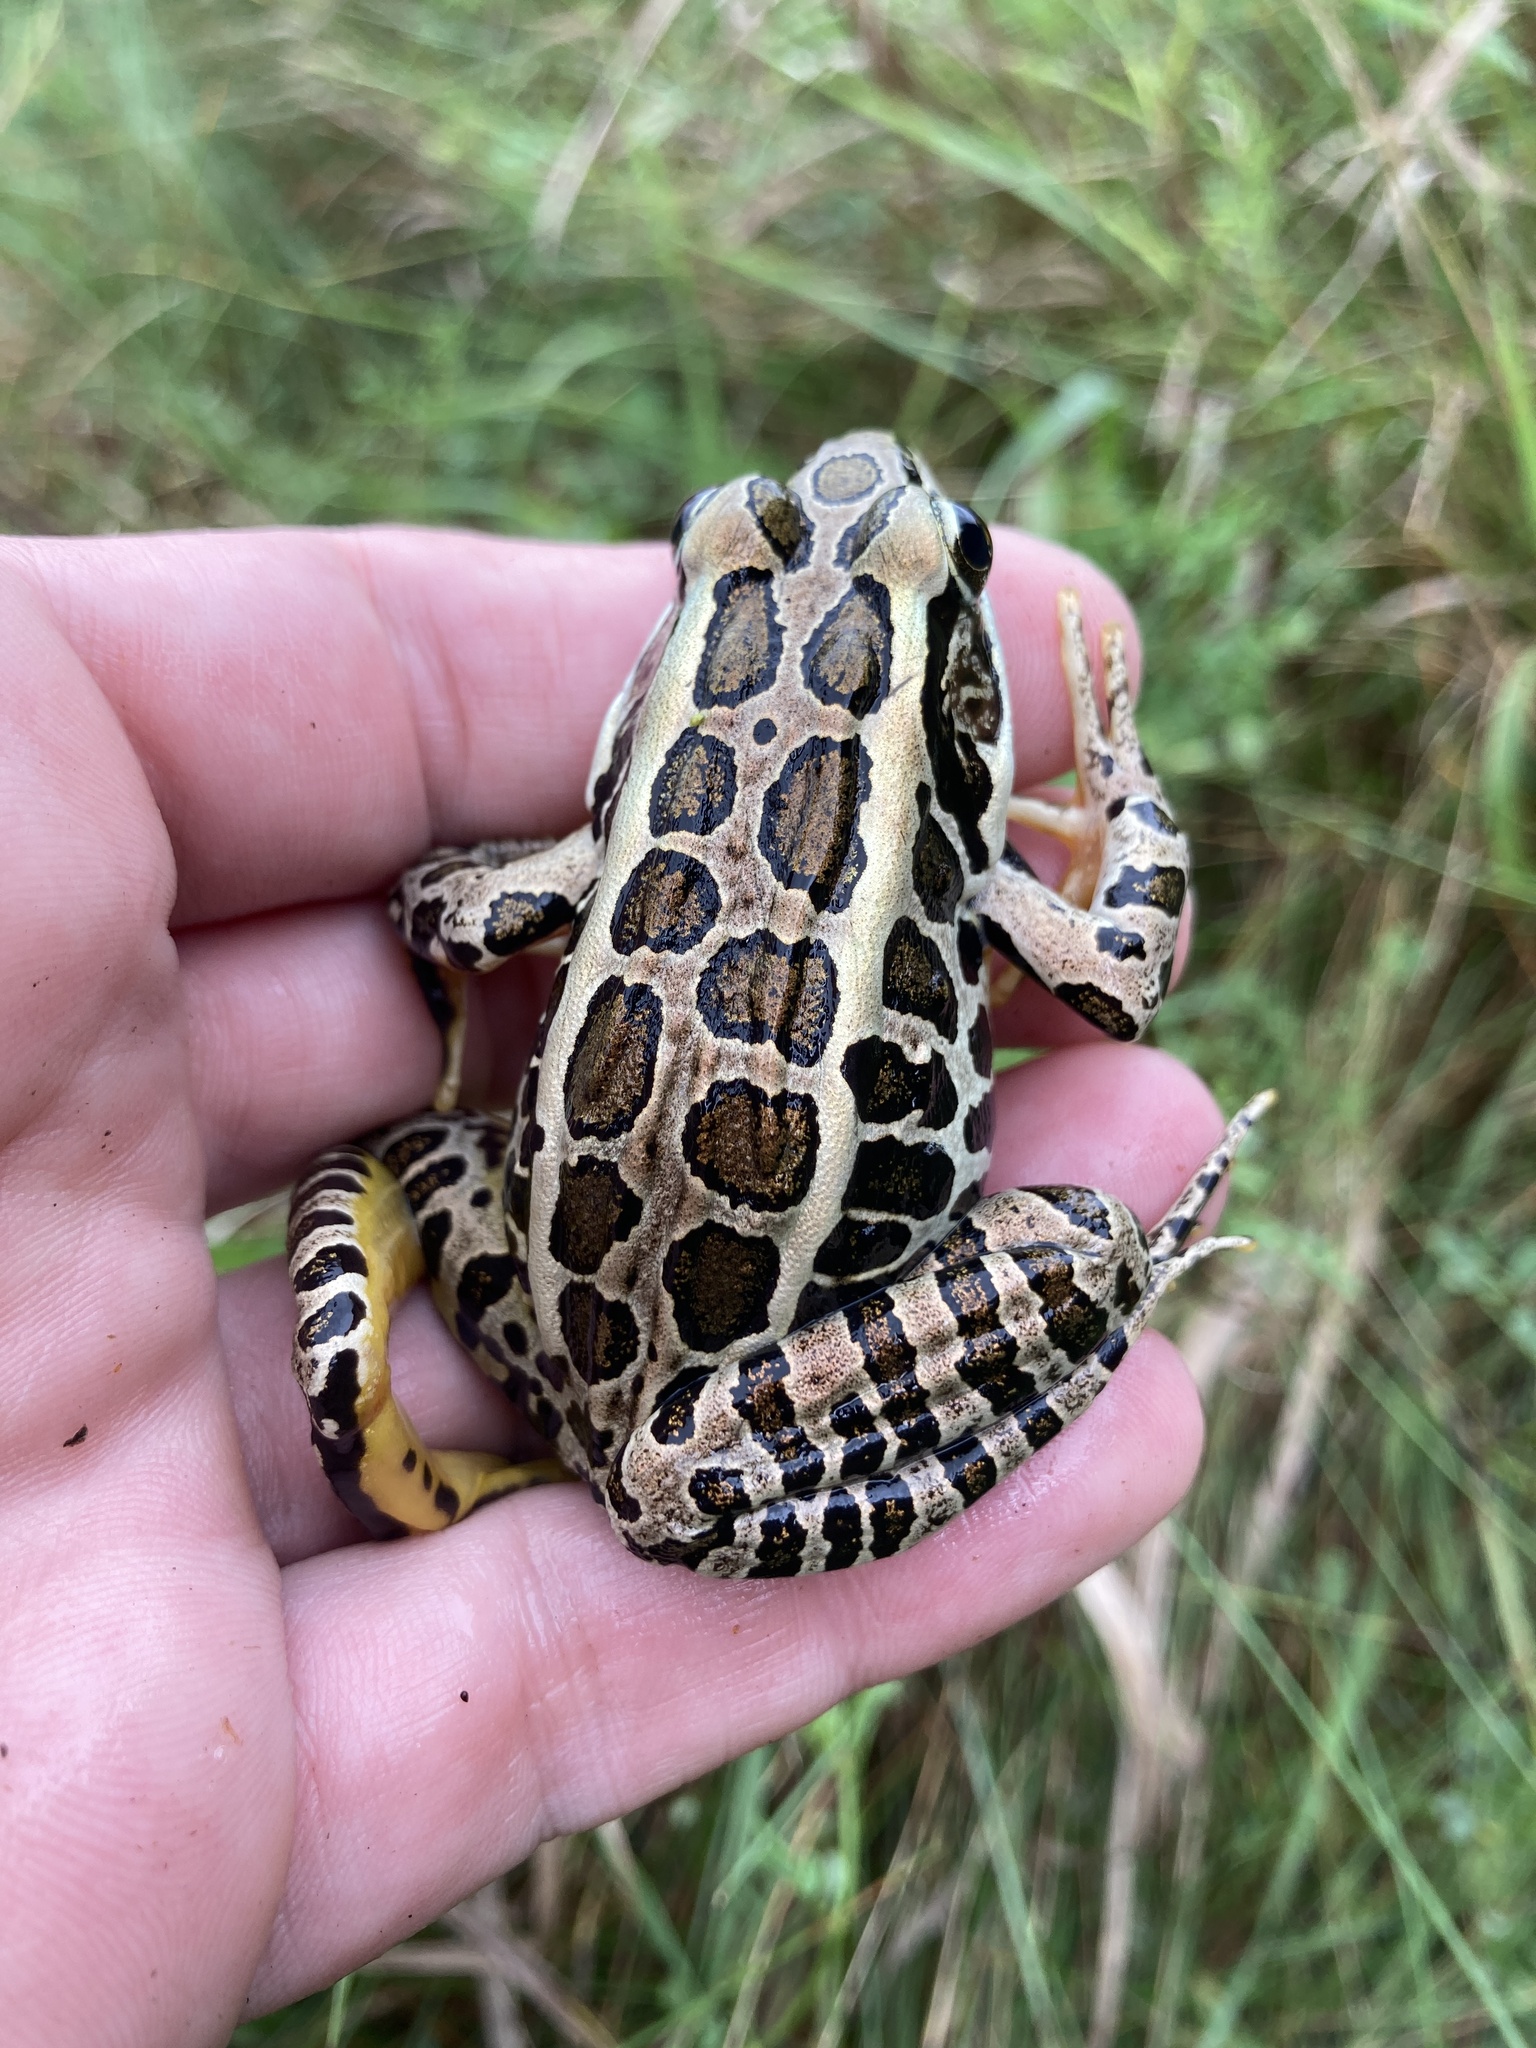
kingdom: Animalia
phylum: Chordata
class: Amphibia
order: Anura
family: Ranidae
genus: Lithobates
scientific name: Lithobates palustris
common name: Pickerel frog
